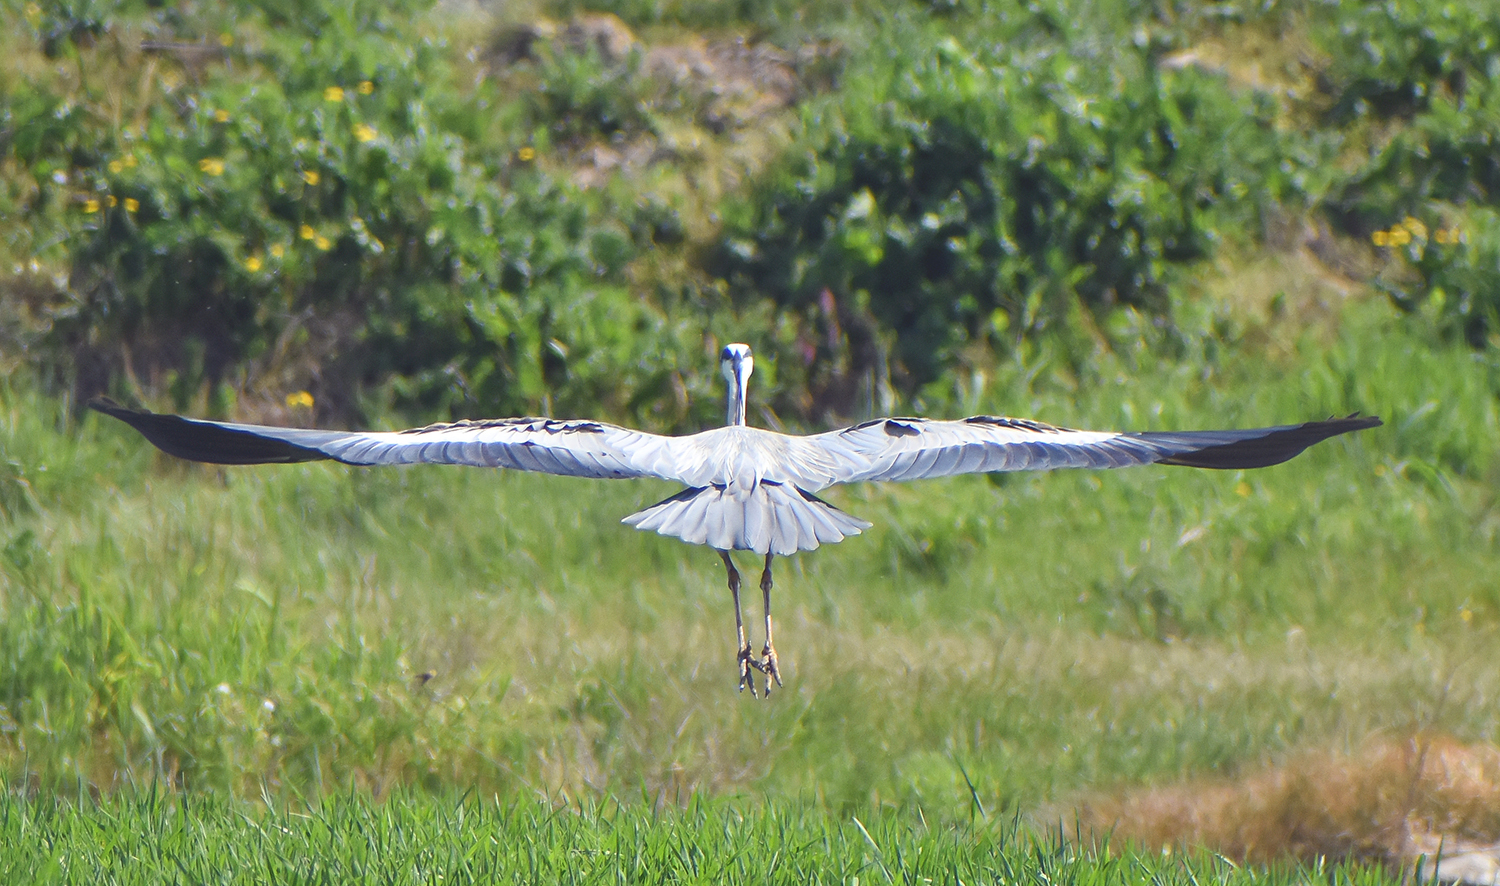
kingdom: Animalia
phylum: Chordata
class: Aves
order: Pelecaniformes
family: Ardeidae
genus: Ardea
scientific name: Ardea cinerea
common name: Grey heron
